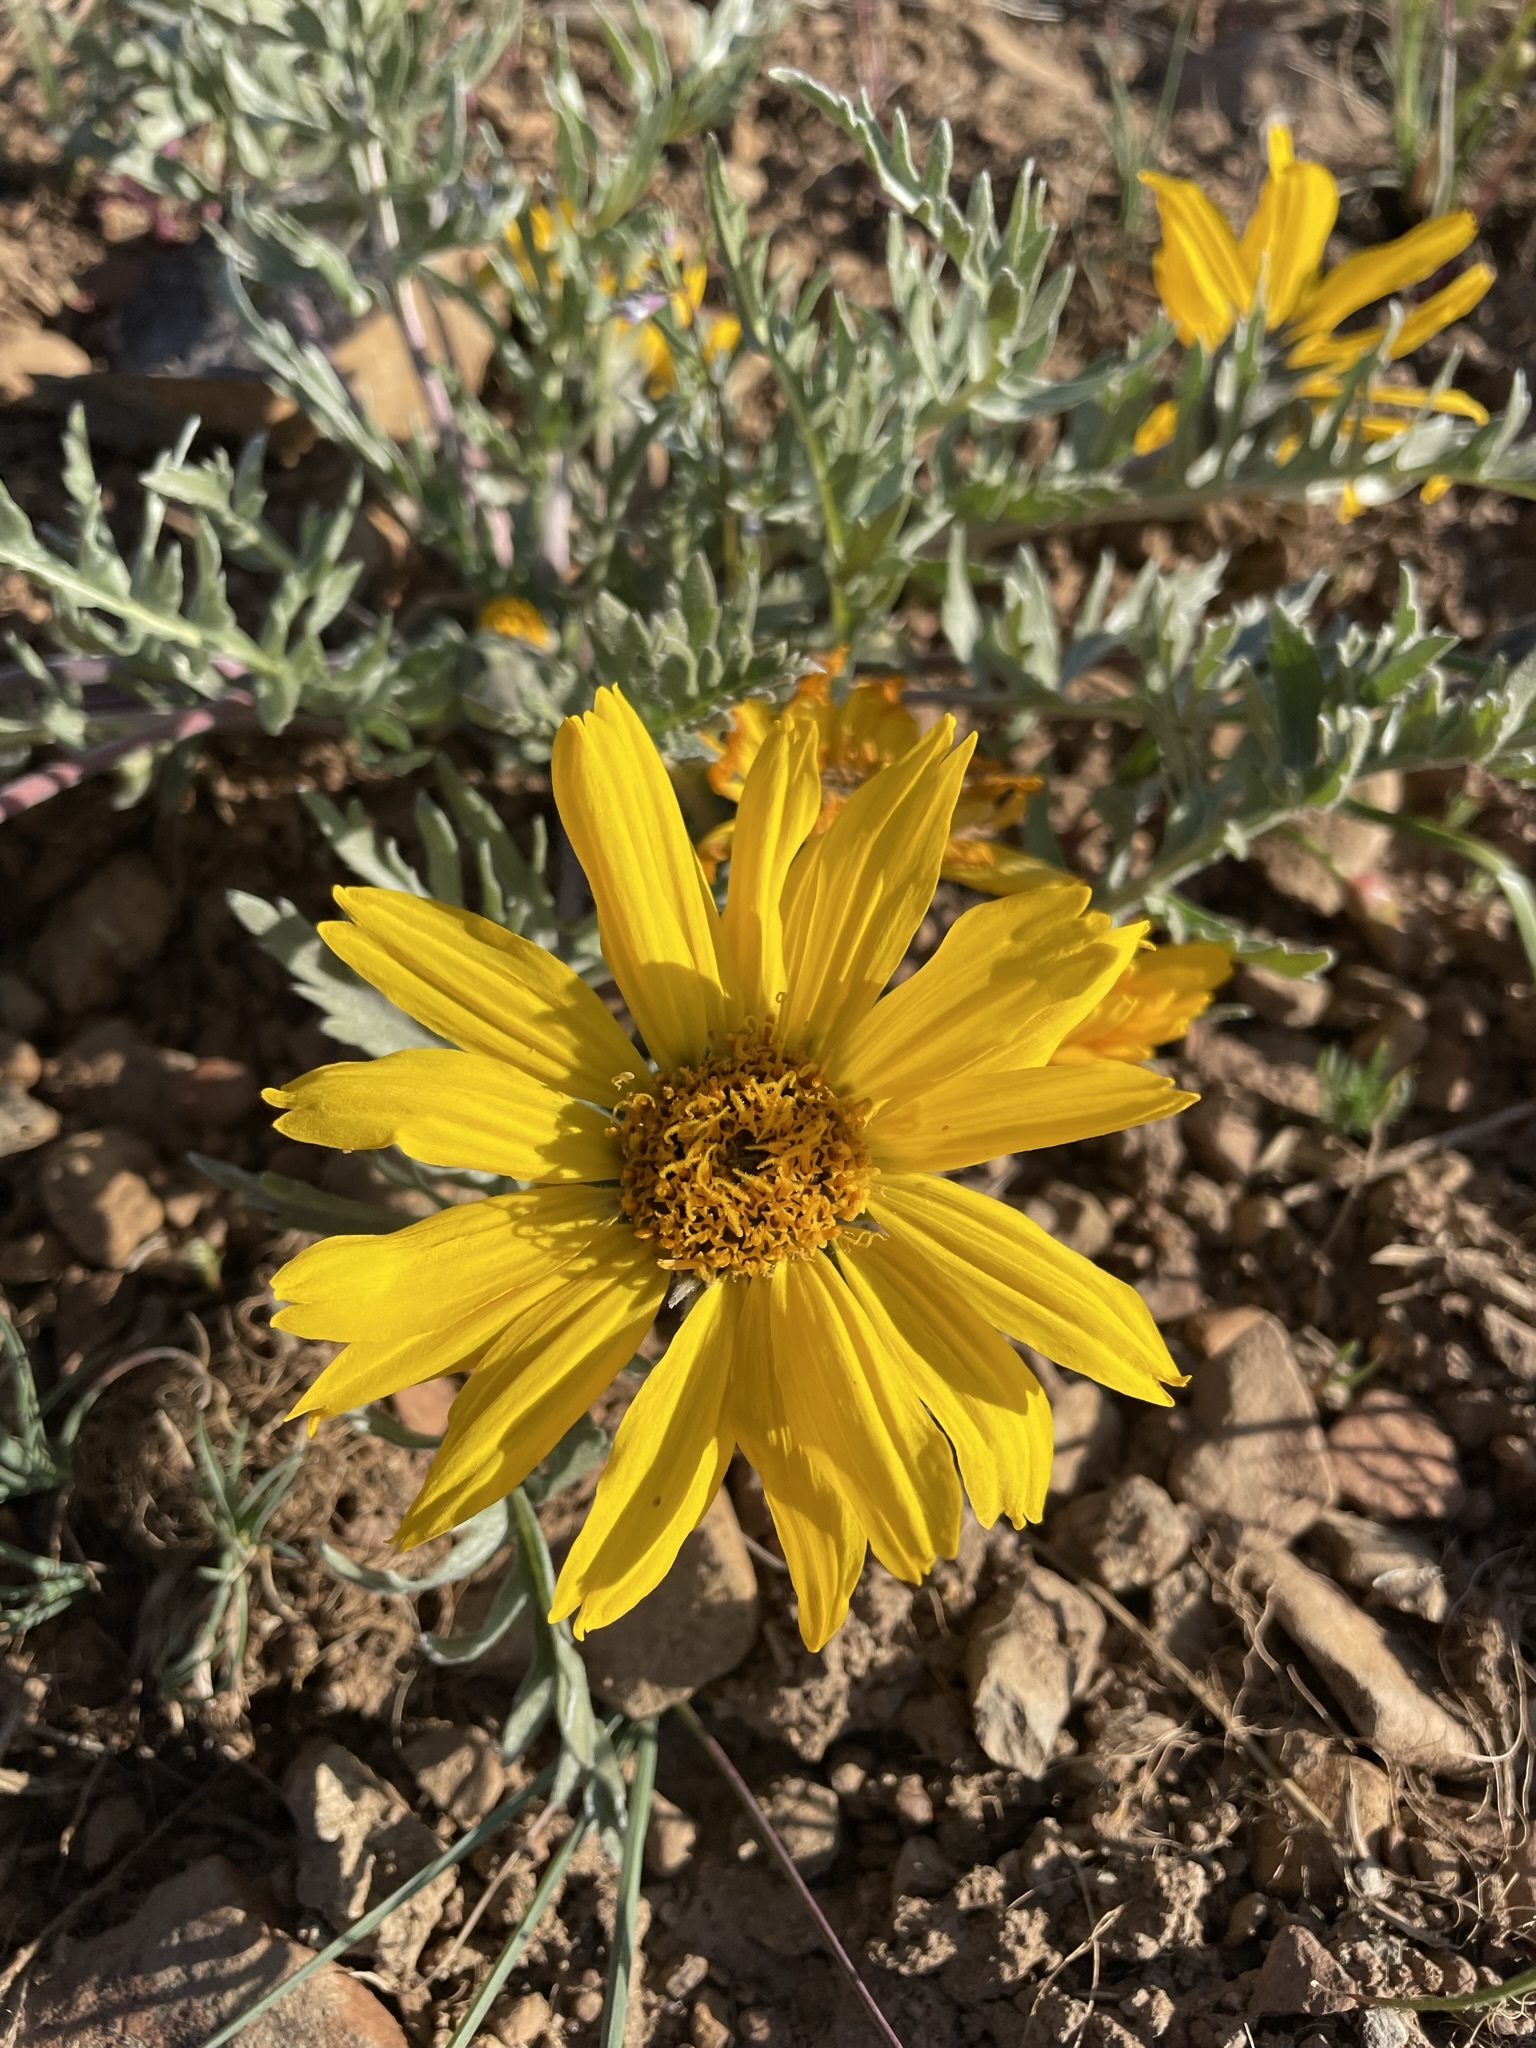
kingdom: Plantae
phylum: Tracheophyta
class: Magnoliopsida
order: Asterales
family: Asteraceae
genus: Balsamorhiza
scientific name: Balsamorhiza hookeri
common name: Hooker's balsamroot
